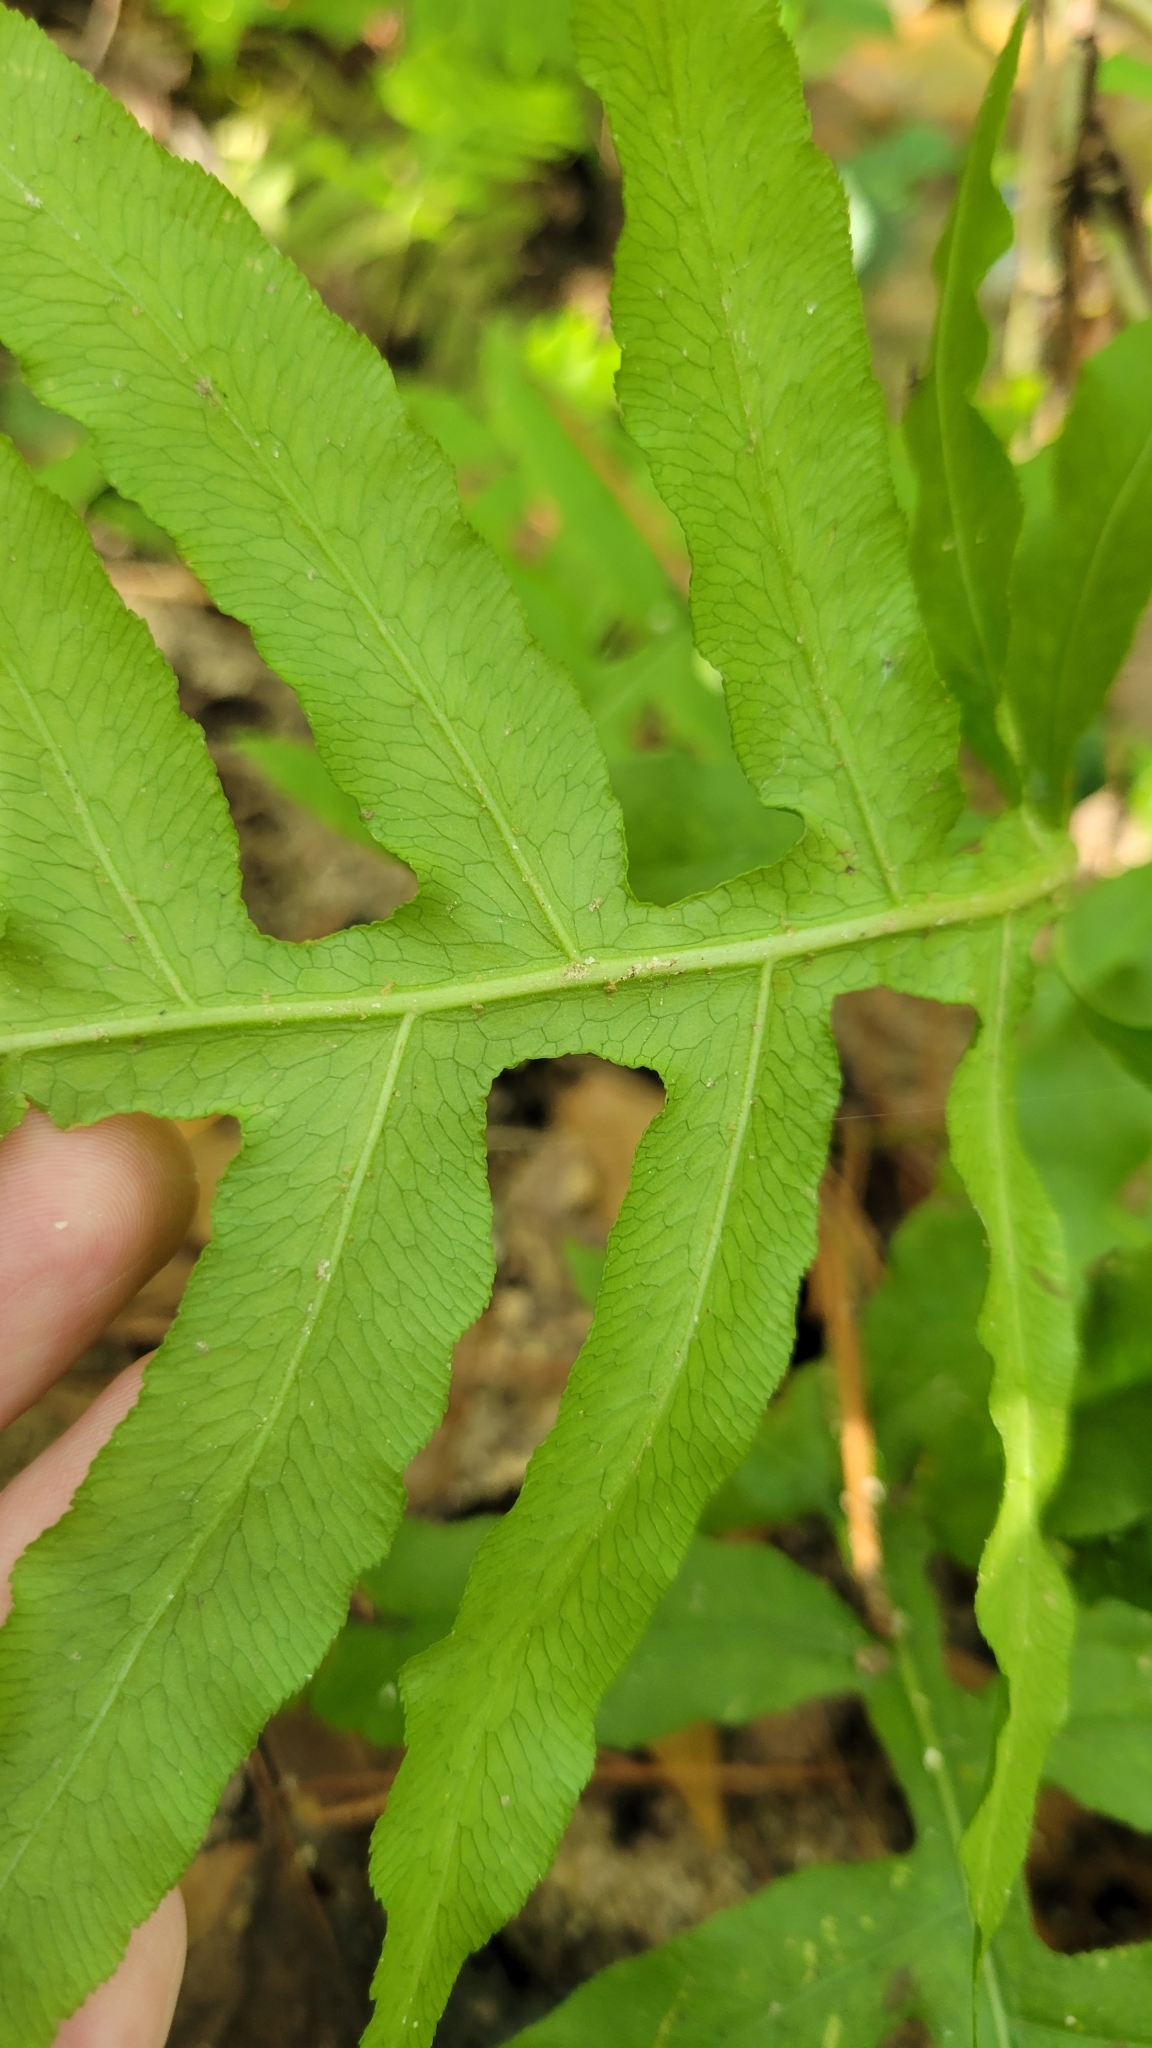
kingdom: Plantae
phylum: Tracheophyta
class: Polypodiopsida
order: Polypodiales
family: Blechnaceae
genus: Lorinseria
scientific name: Lorinseria areolata
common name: Dwarf chain fern
